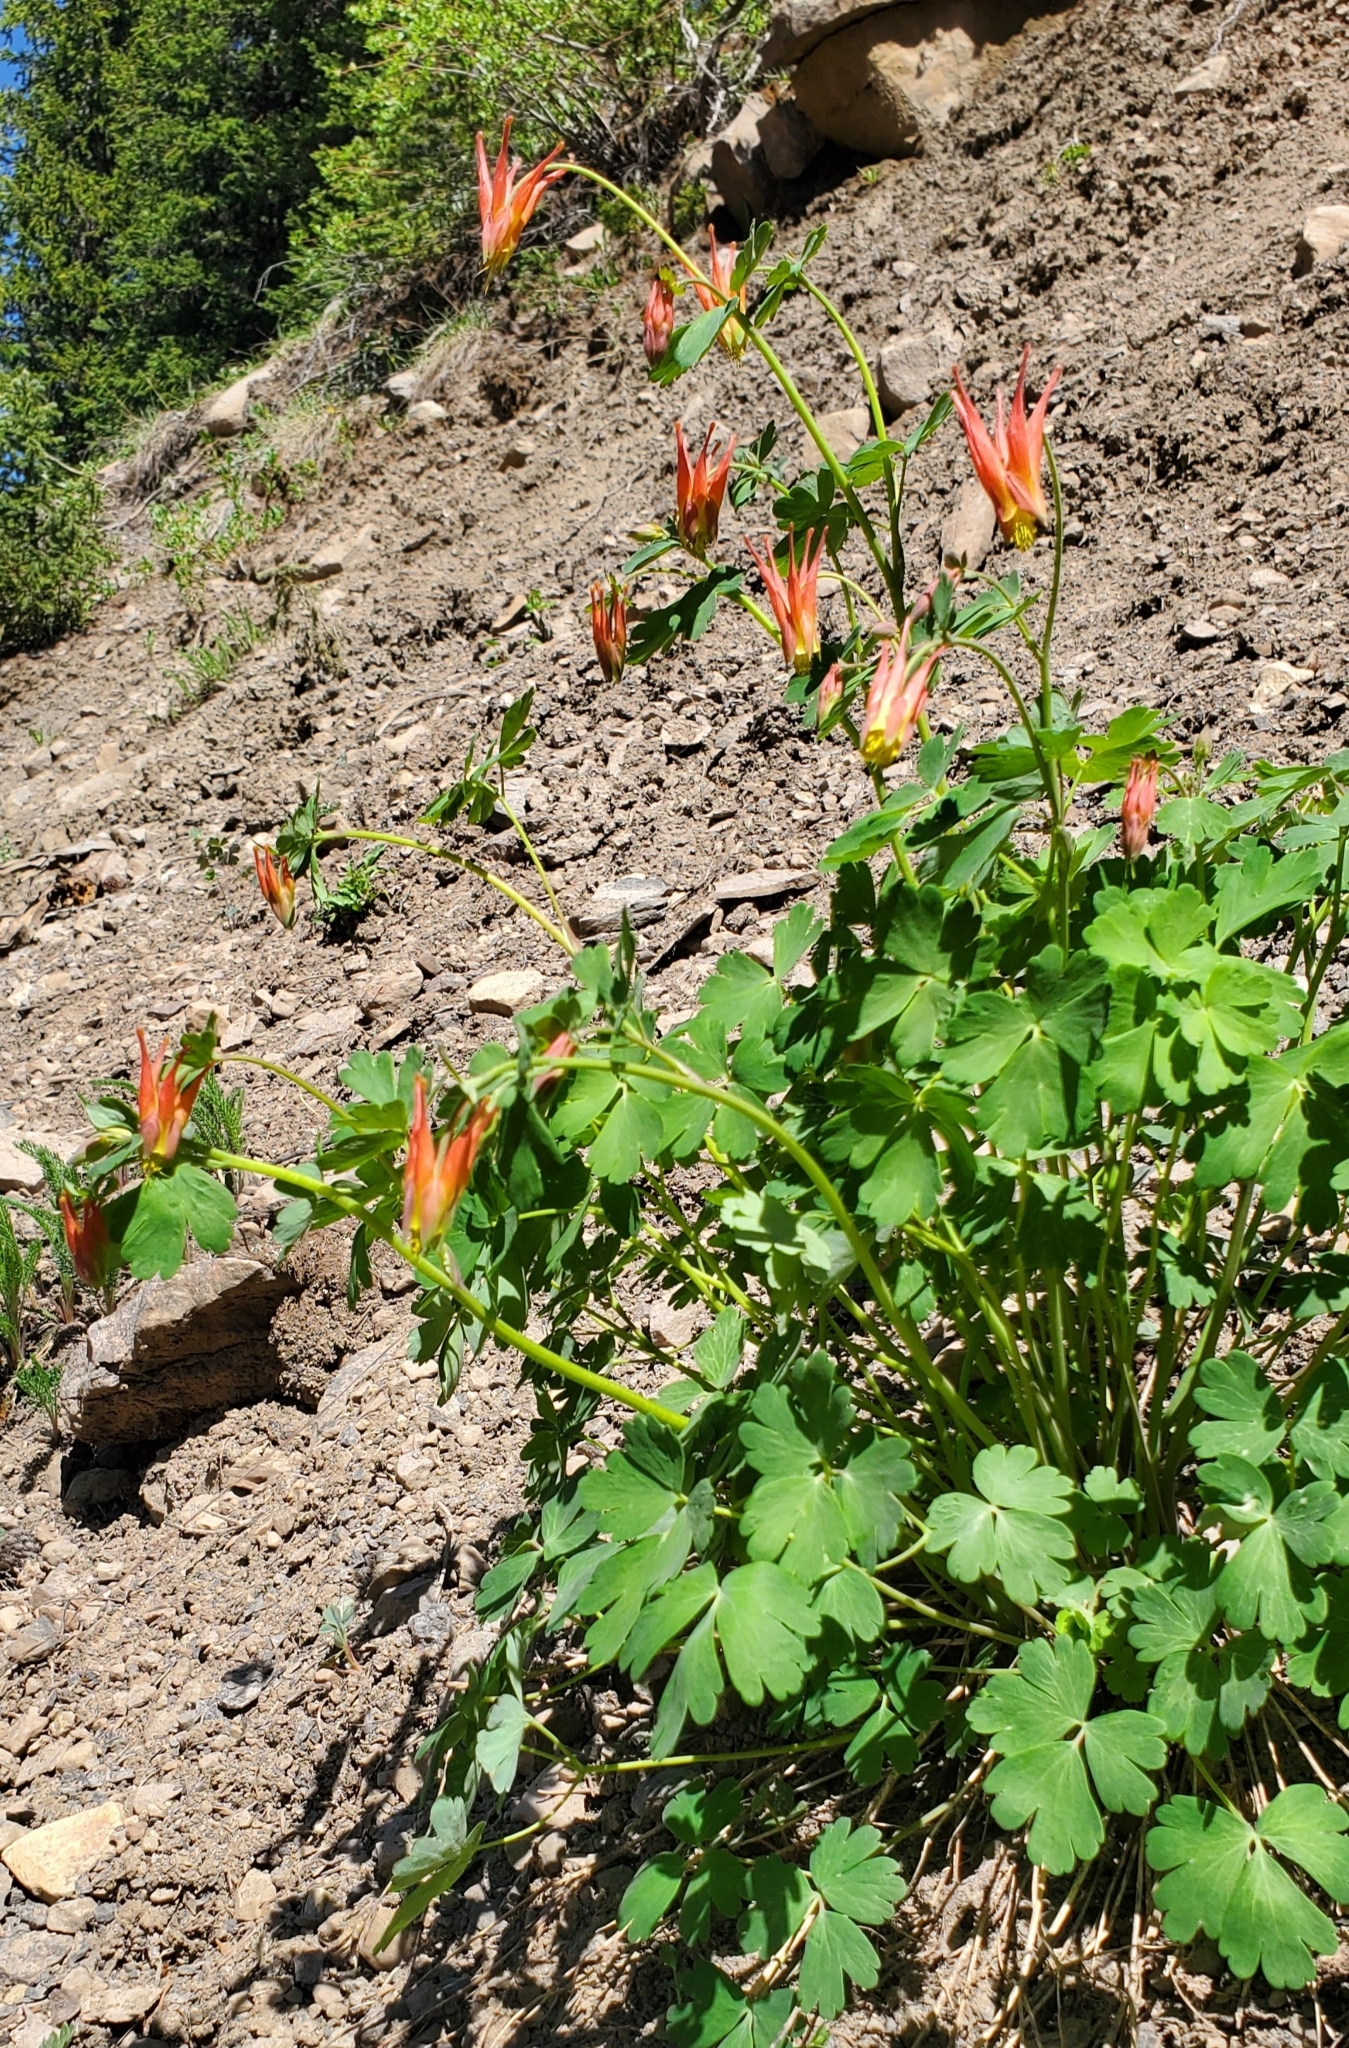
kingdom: Plantae
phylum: Tracheophyta
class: Magnoliopsida
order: Ranunculales
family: Ranunculaceae
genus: Aquilegia
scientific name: Aquilegia elegantula
